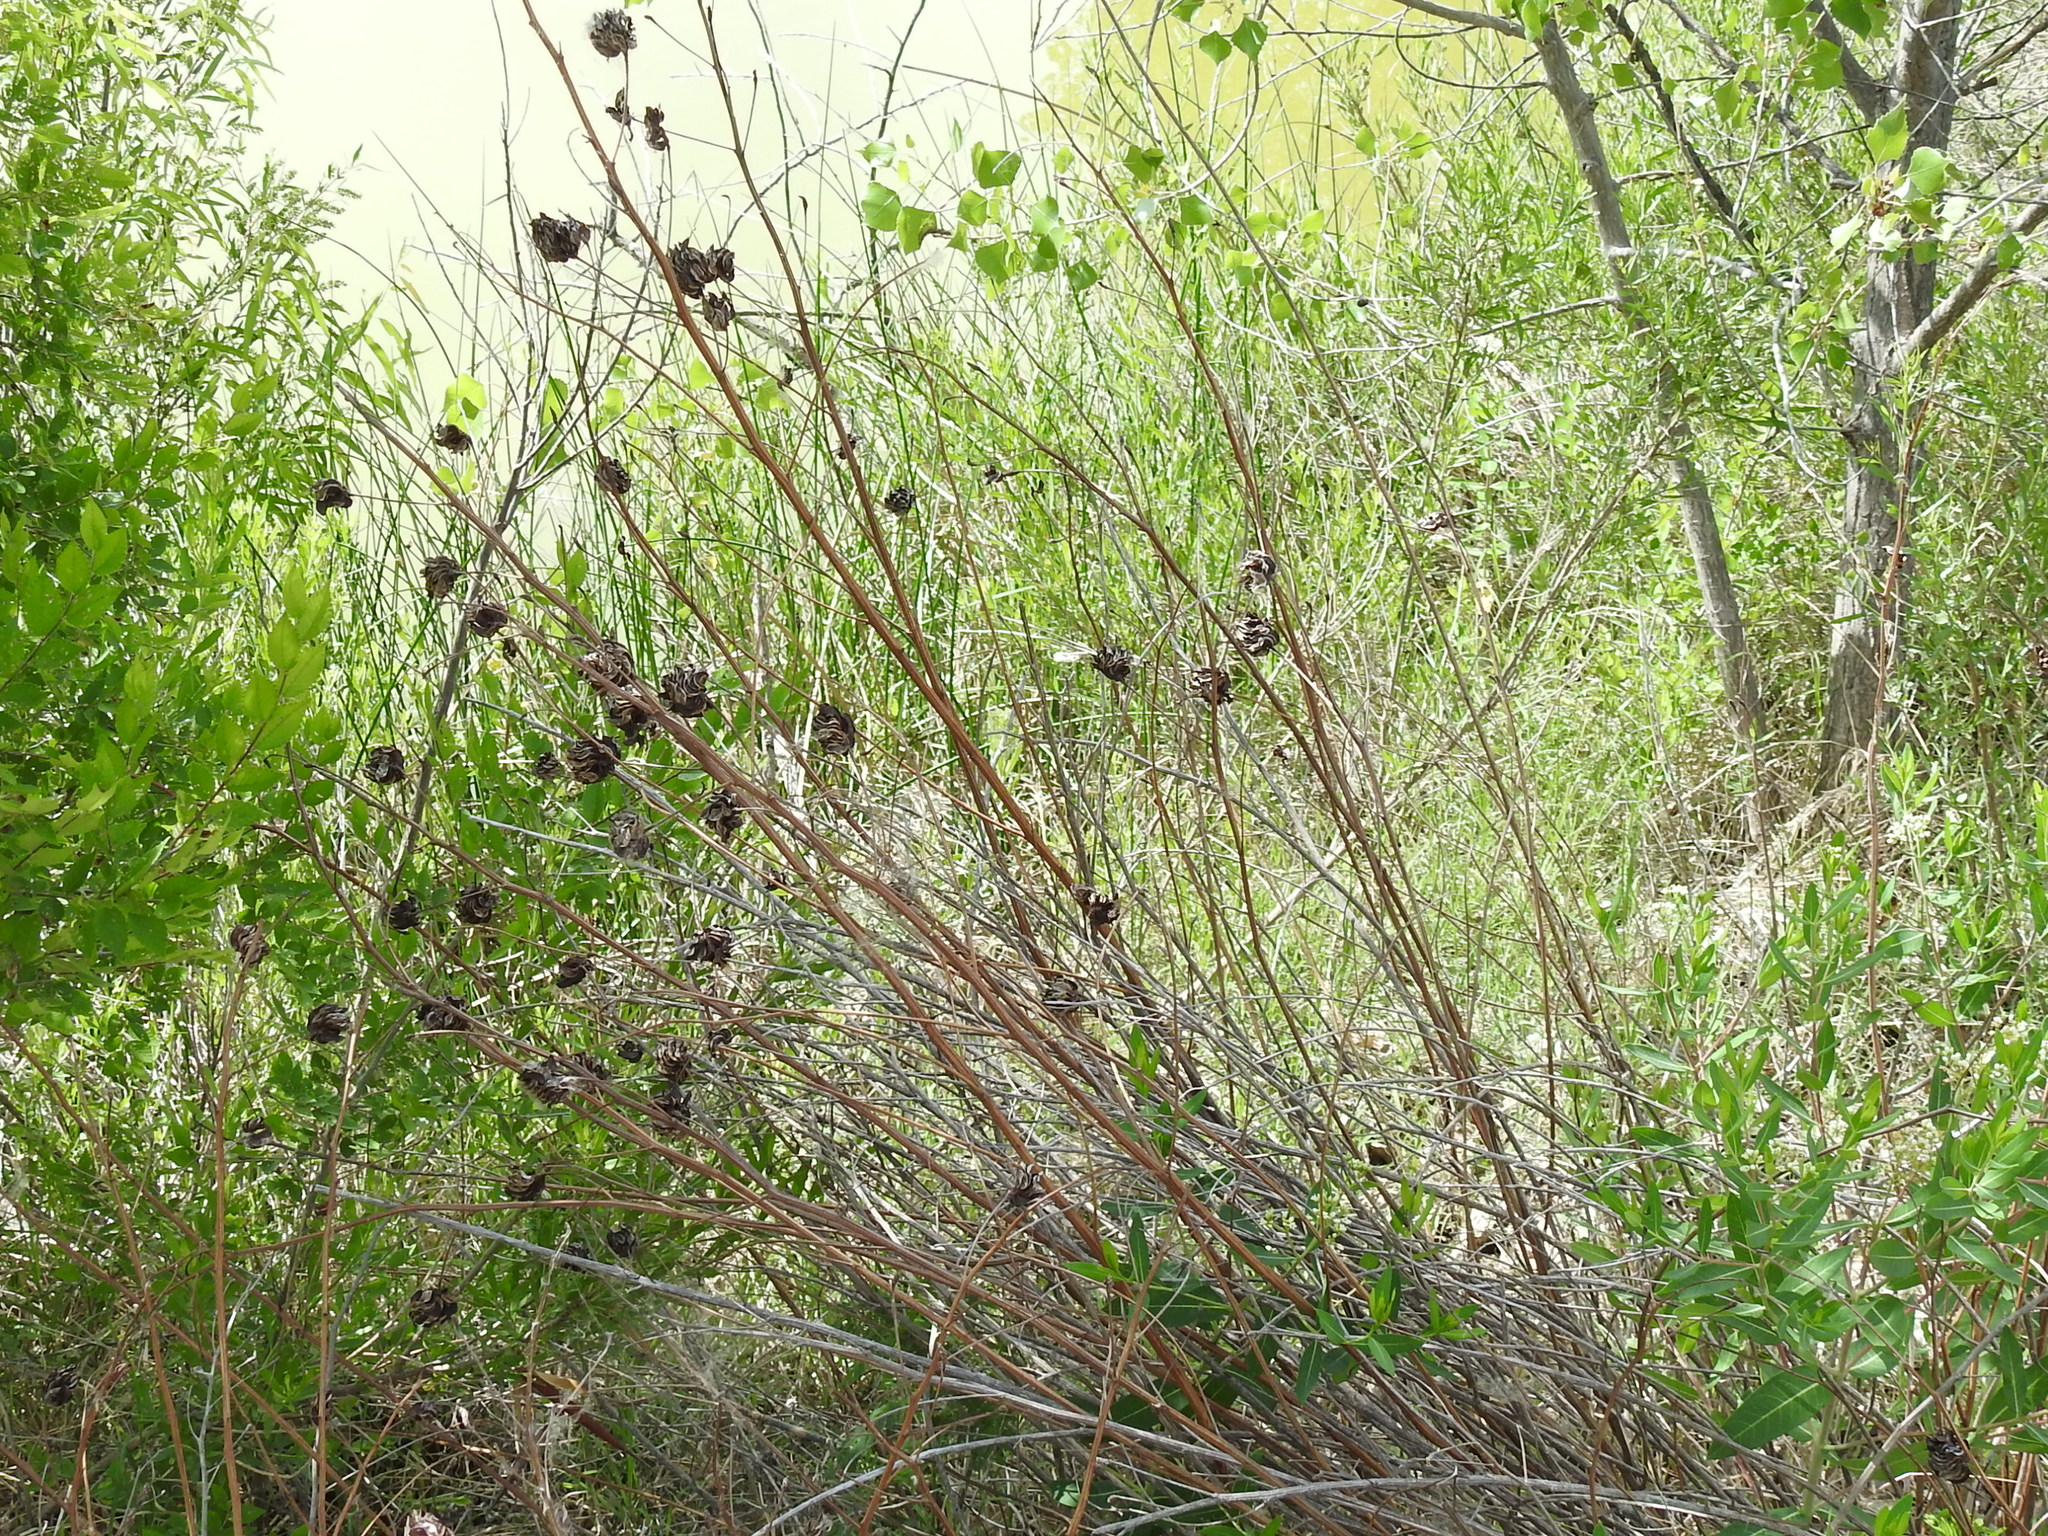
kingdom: Plantae
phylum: Tracheophyta
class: Magnoliopsida
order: Fabales
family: Fabaceae
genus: Desmanthus
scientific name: Desmanthus illinoensis
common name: Illinois bundle-flower
